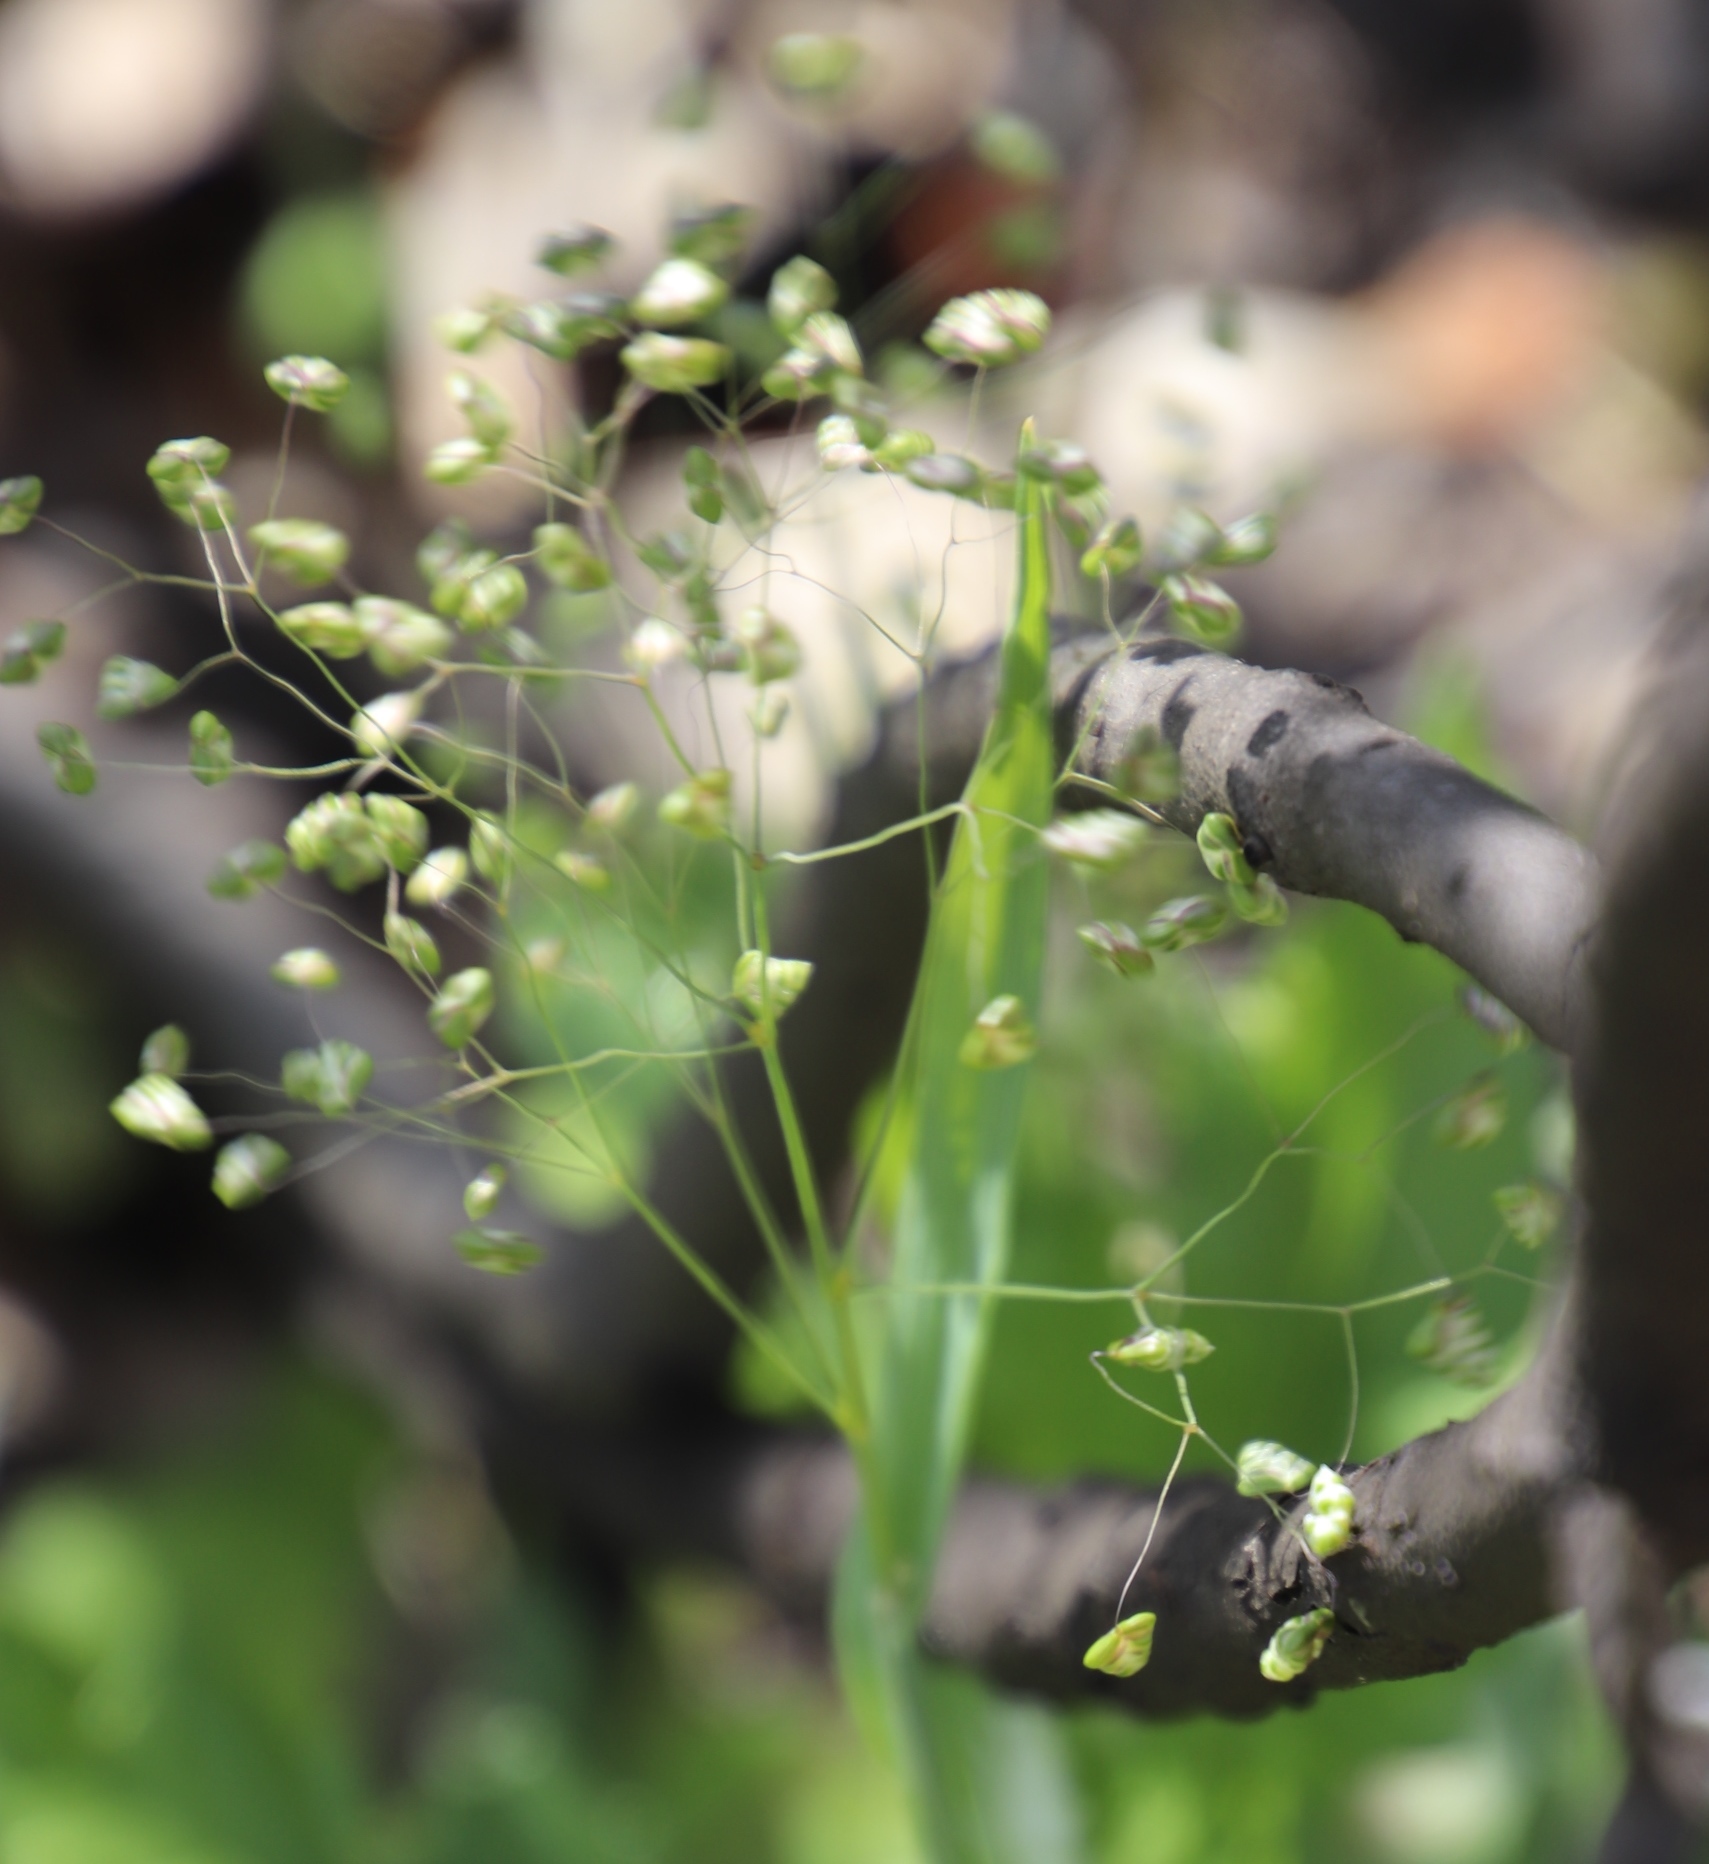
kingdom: Plantae
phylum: Tracheophyta
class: Liliopsida
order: Poales
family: Poaceae
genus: Briza
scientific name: Briza minor
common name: Lesser quaking-grass
